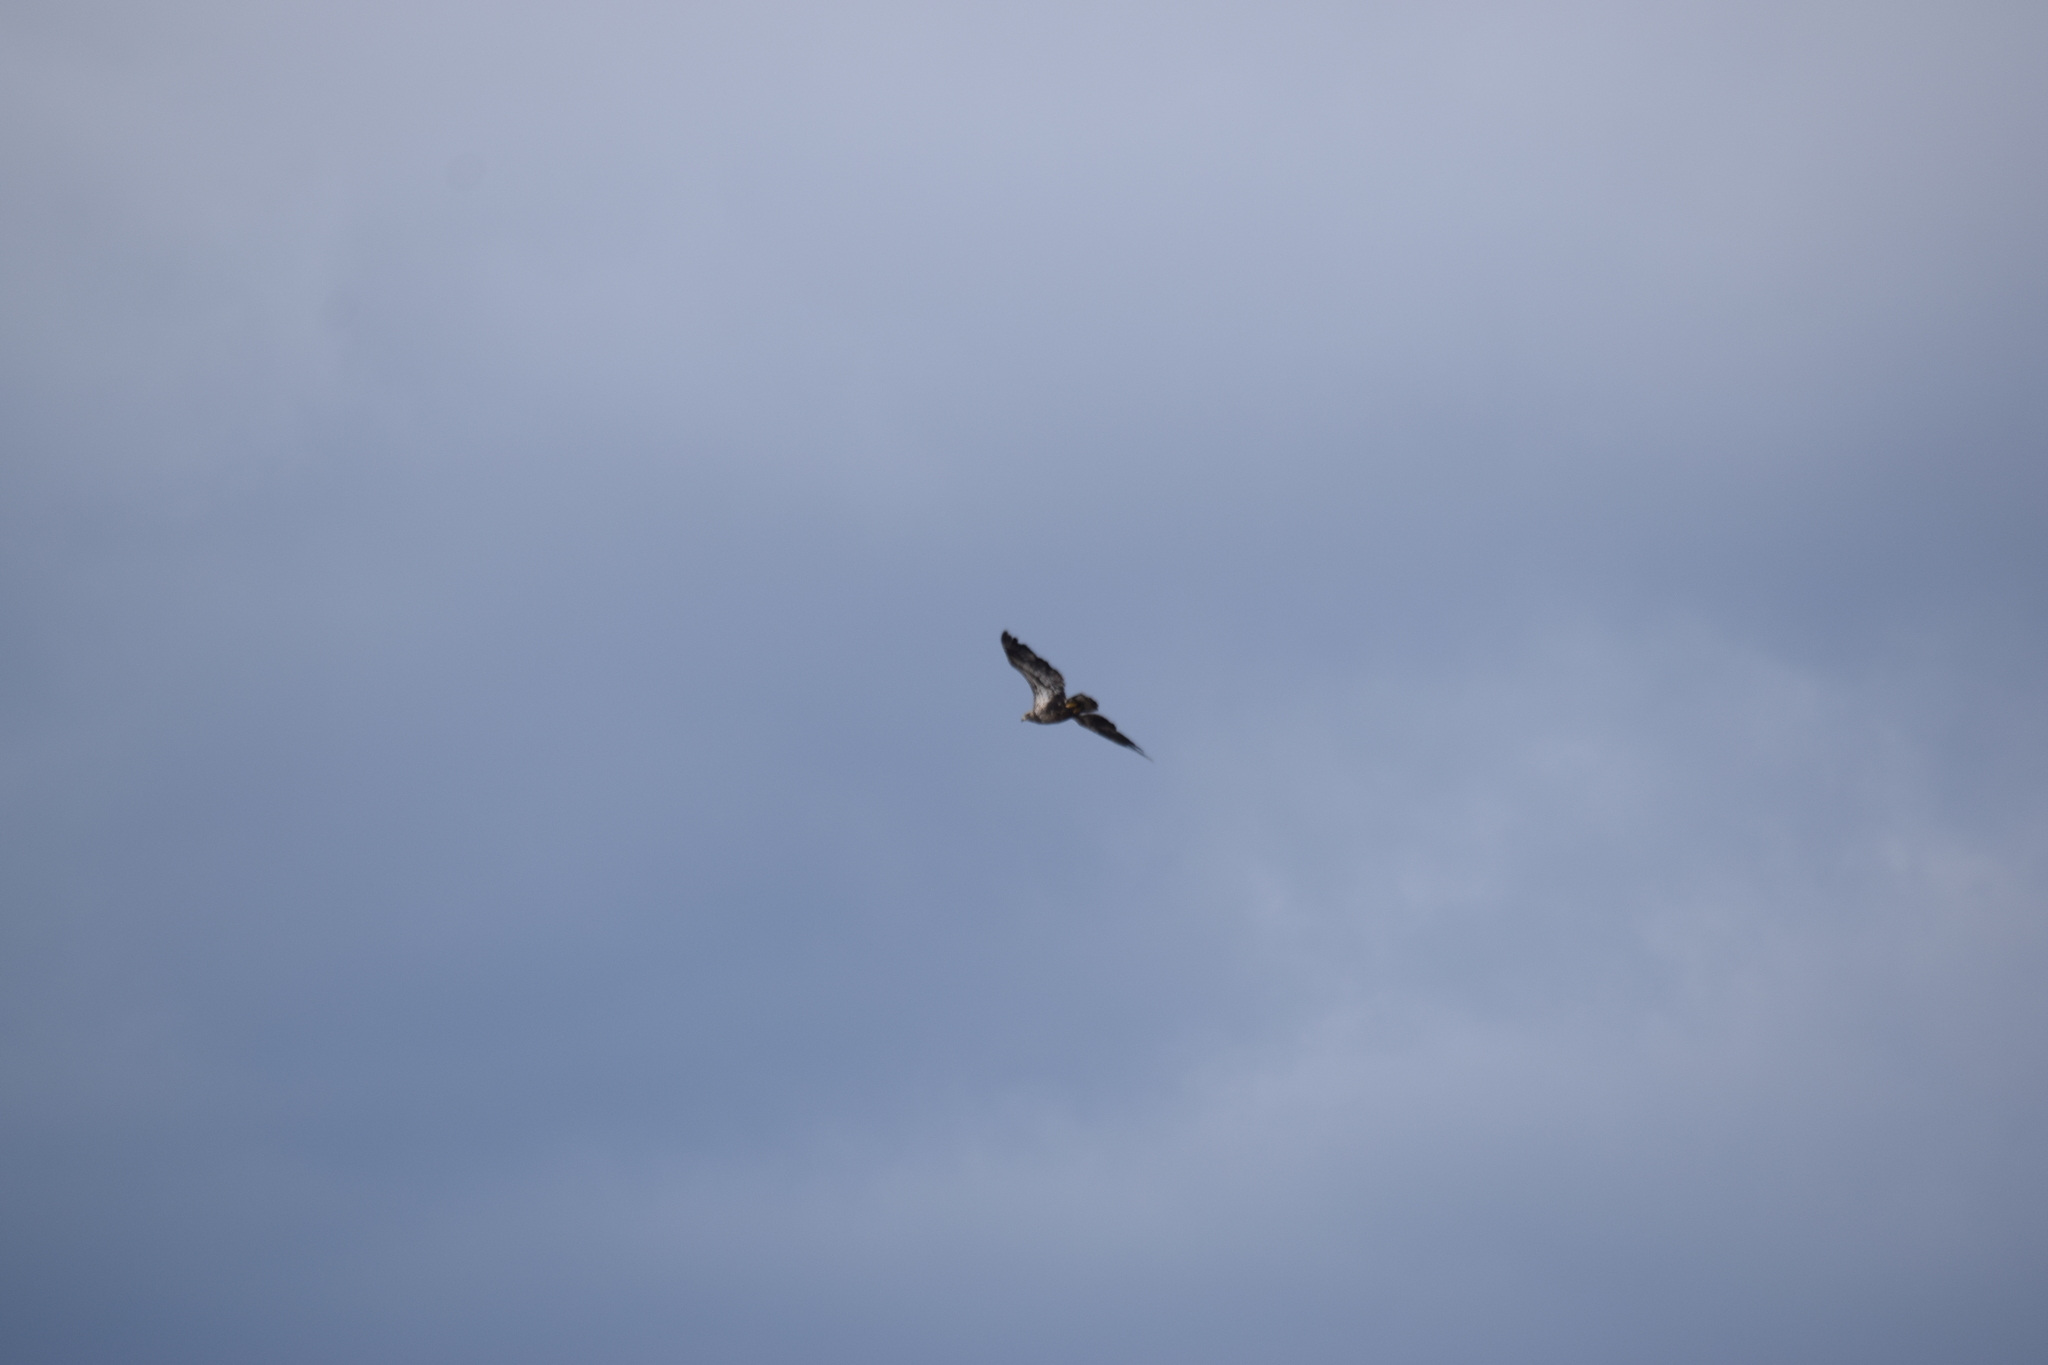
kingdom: Animalia
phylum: Chordata
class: Aves
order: Accipitriformes
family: Accipitridae
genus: Haliaeetus
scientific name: Haliaeetus leucocephalus
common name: Bald eagle
